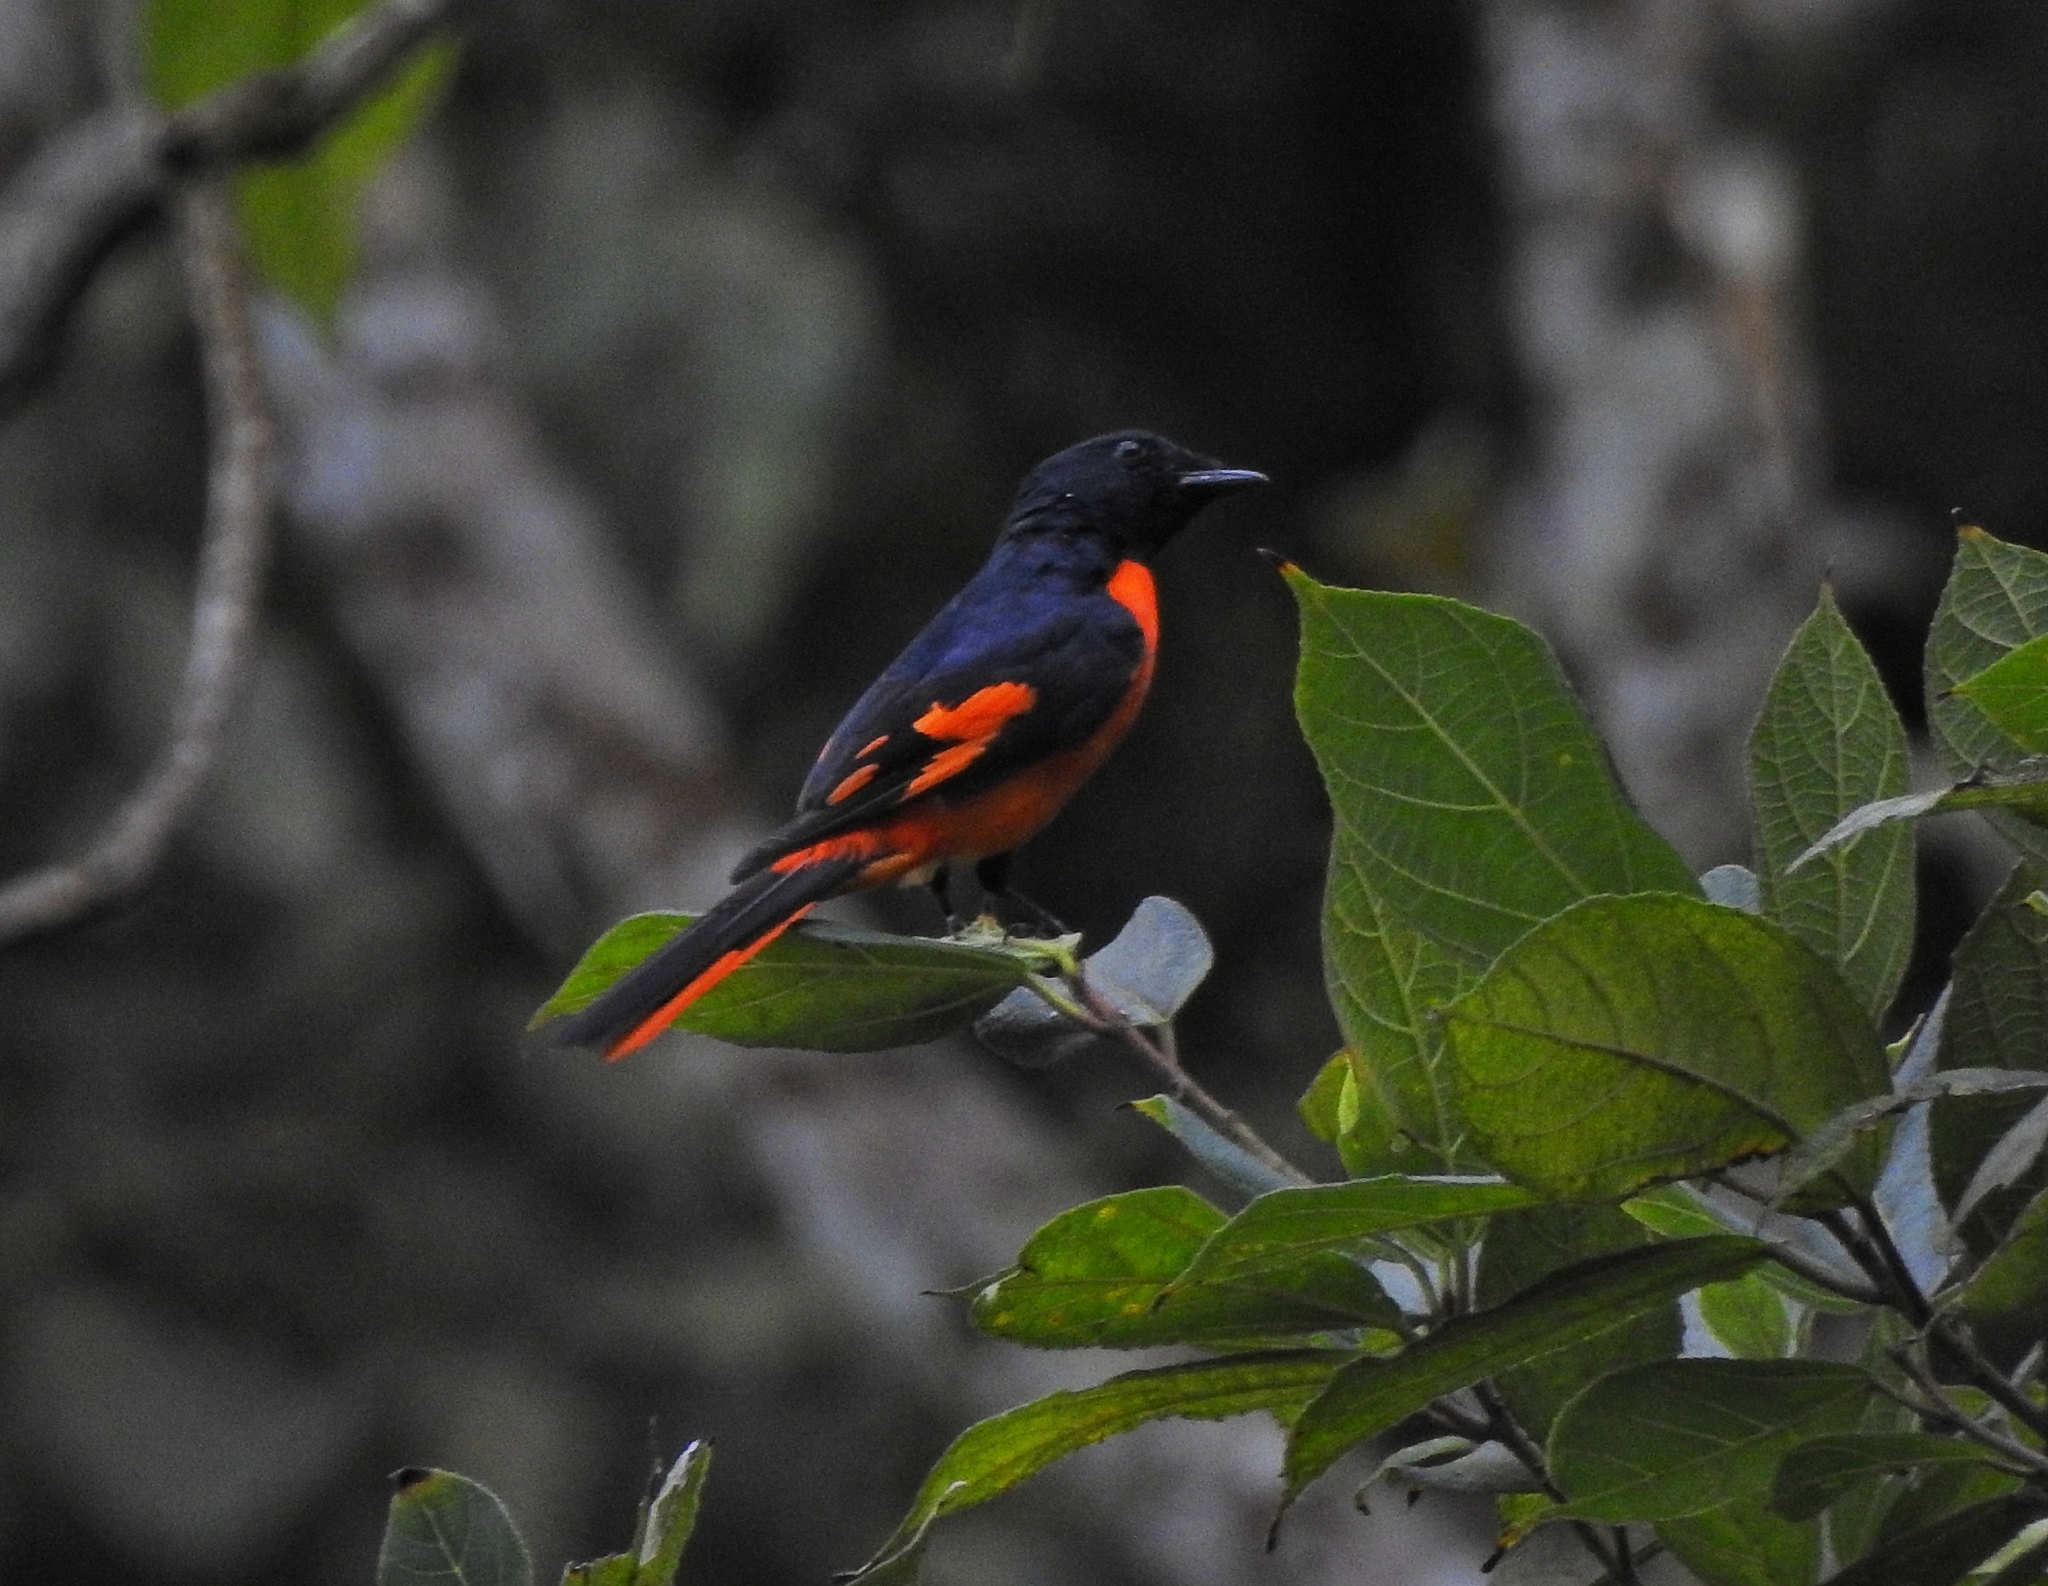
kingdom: Animalia
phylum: Chordata
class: Aves
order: Passeriformes
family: Campephagidae
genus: Pericrocotus
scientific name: Pericrocotus flammeus
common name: Orange minivet
